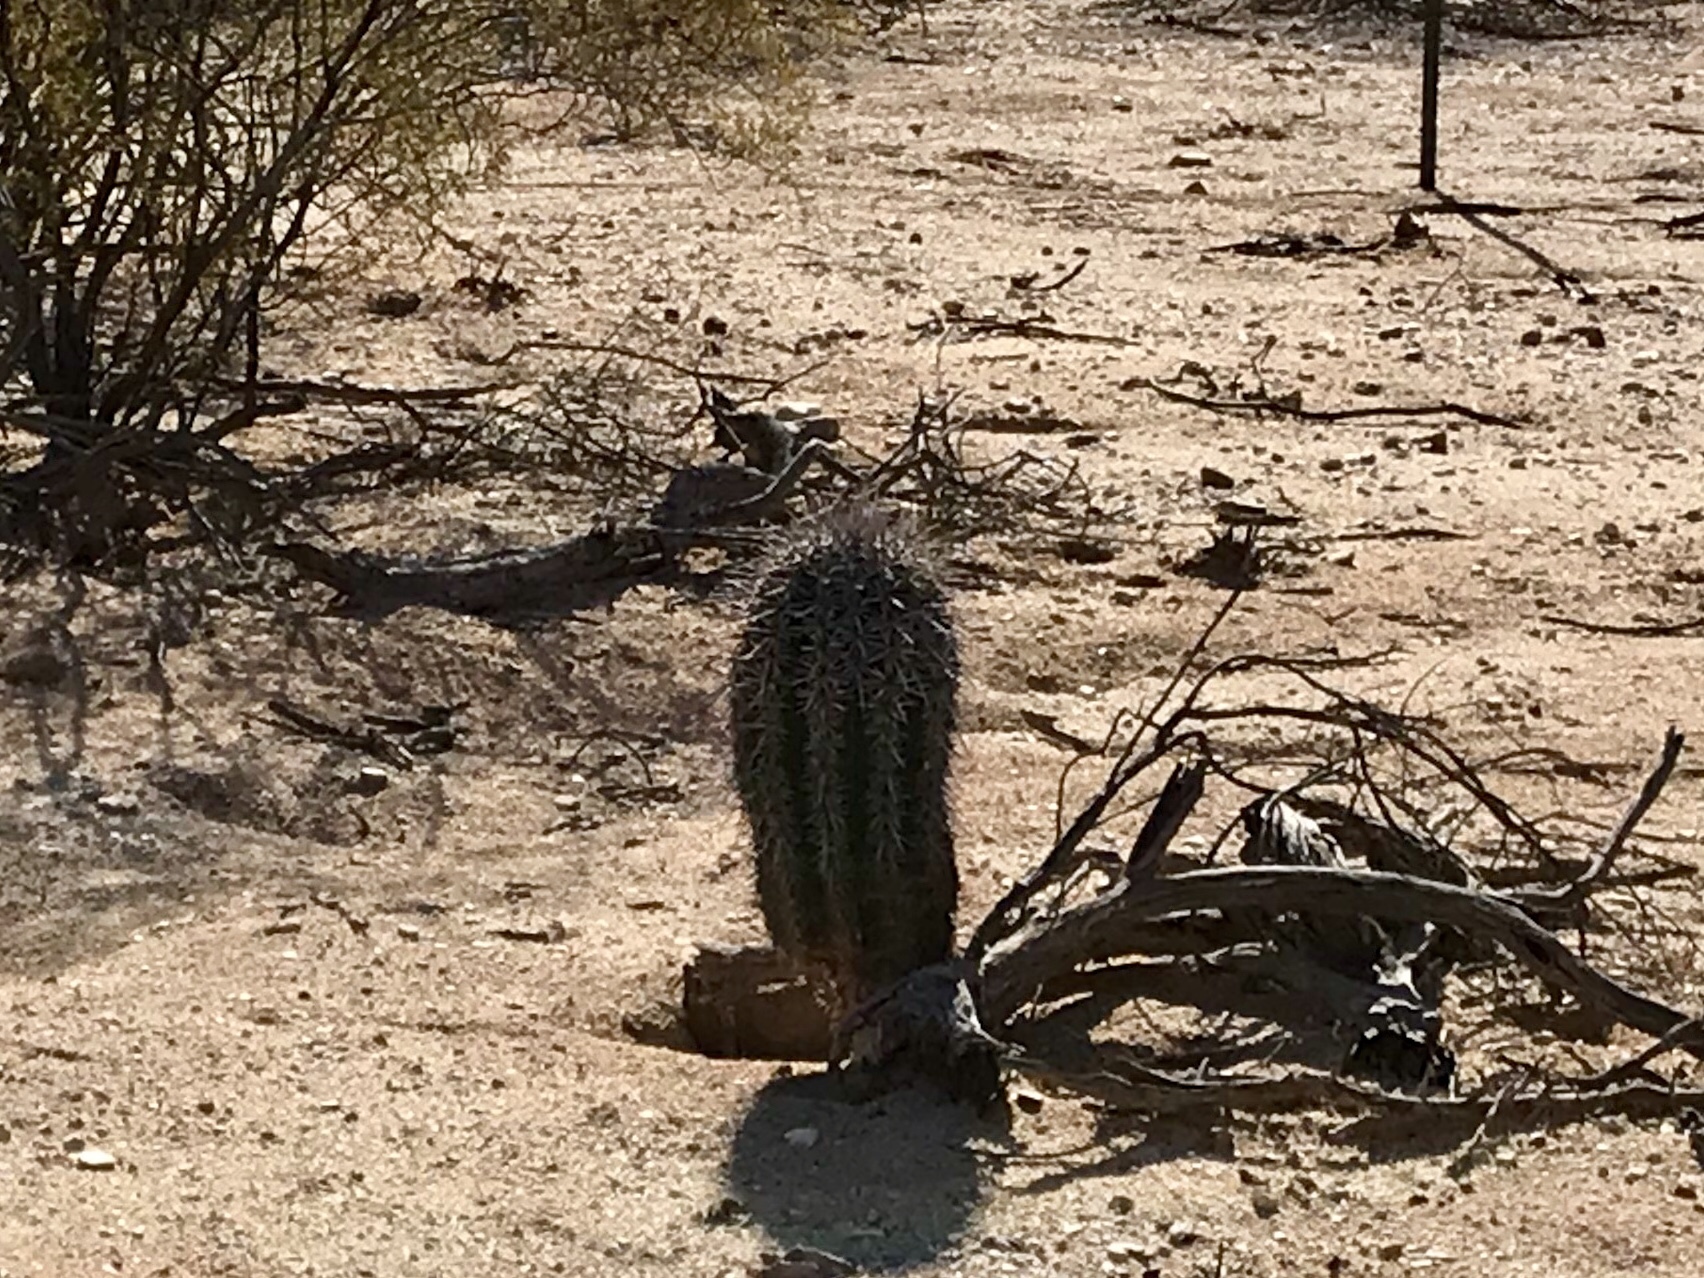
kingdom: Plantae
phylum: Tracheophyta
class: Magnoliopsida
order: Caryophyllales
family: Cactaceae
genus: Carnegiea
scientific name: Carnegiea gigantea
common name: Saguaro
